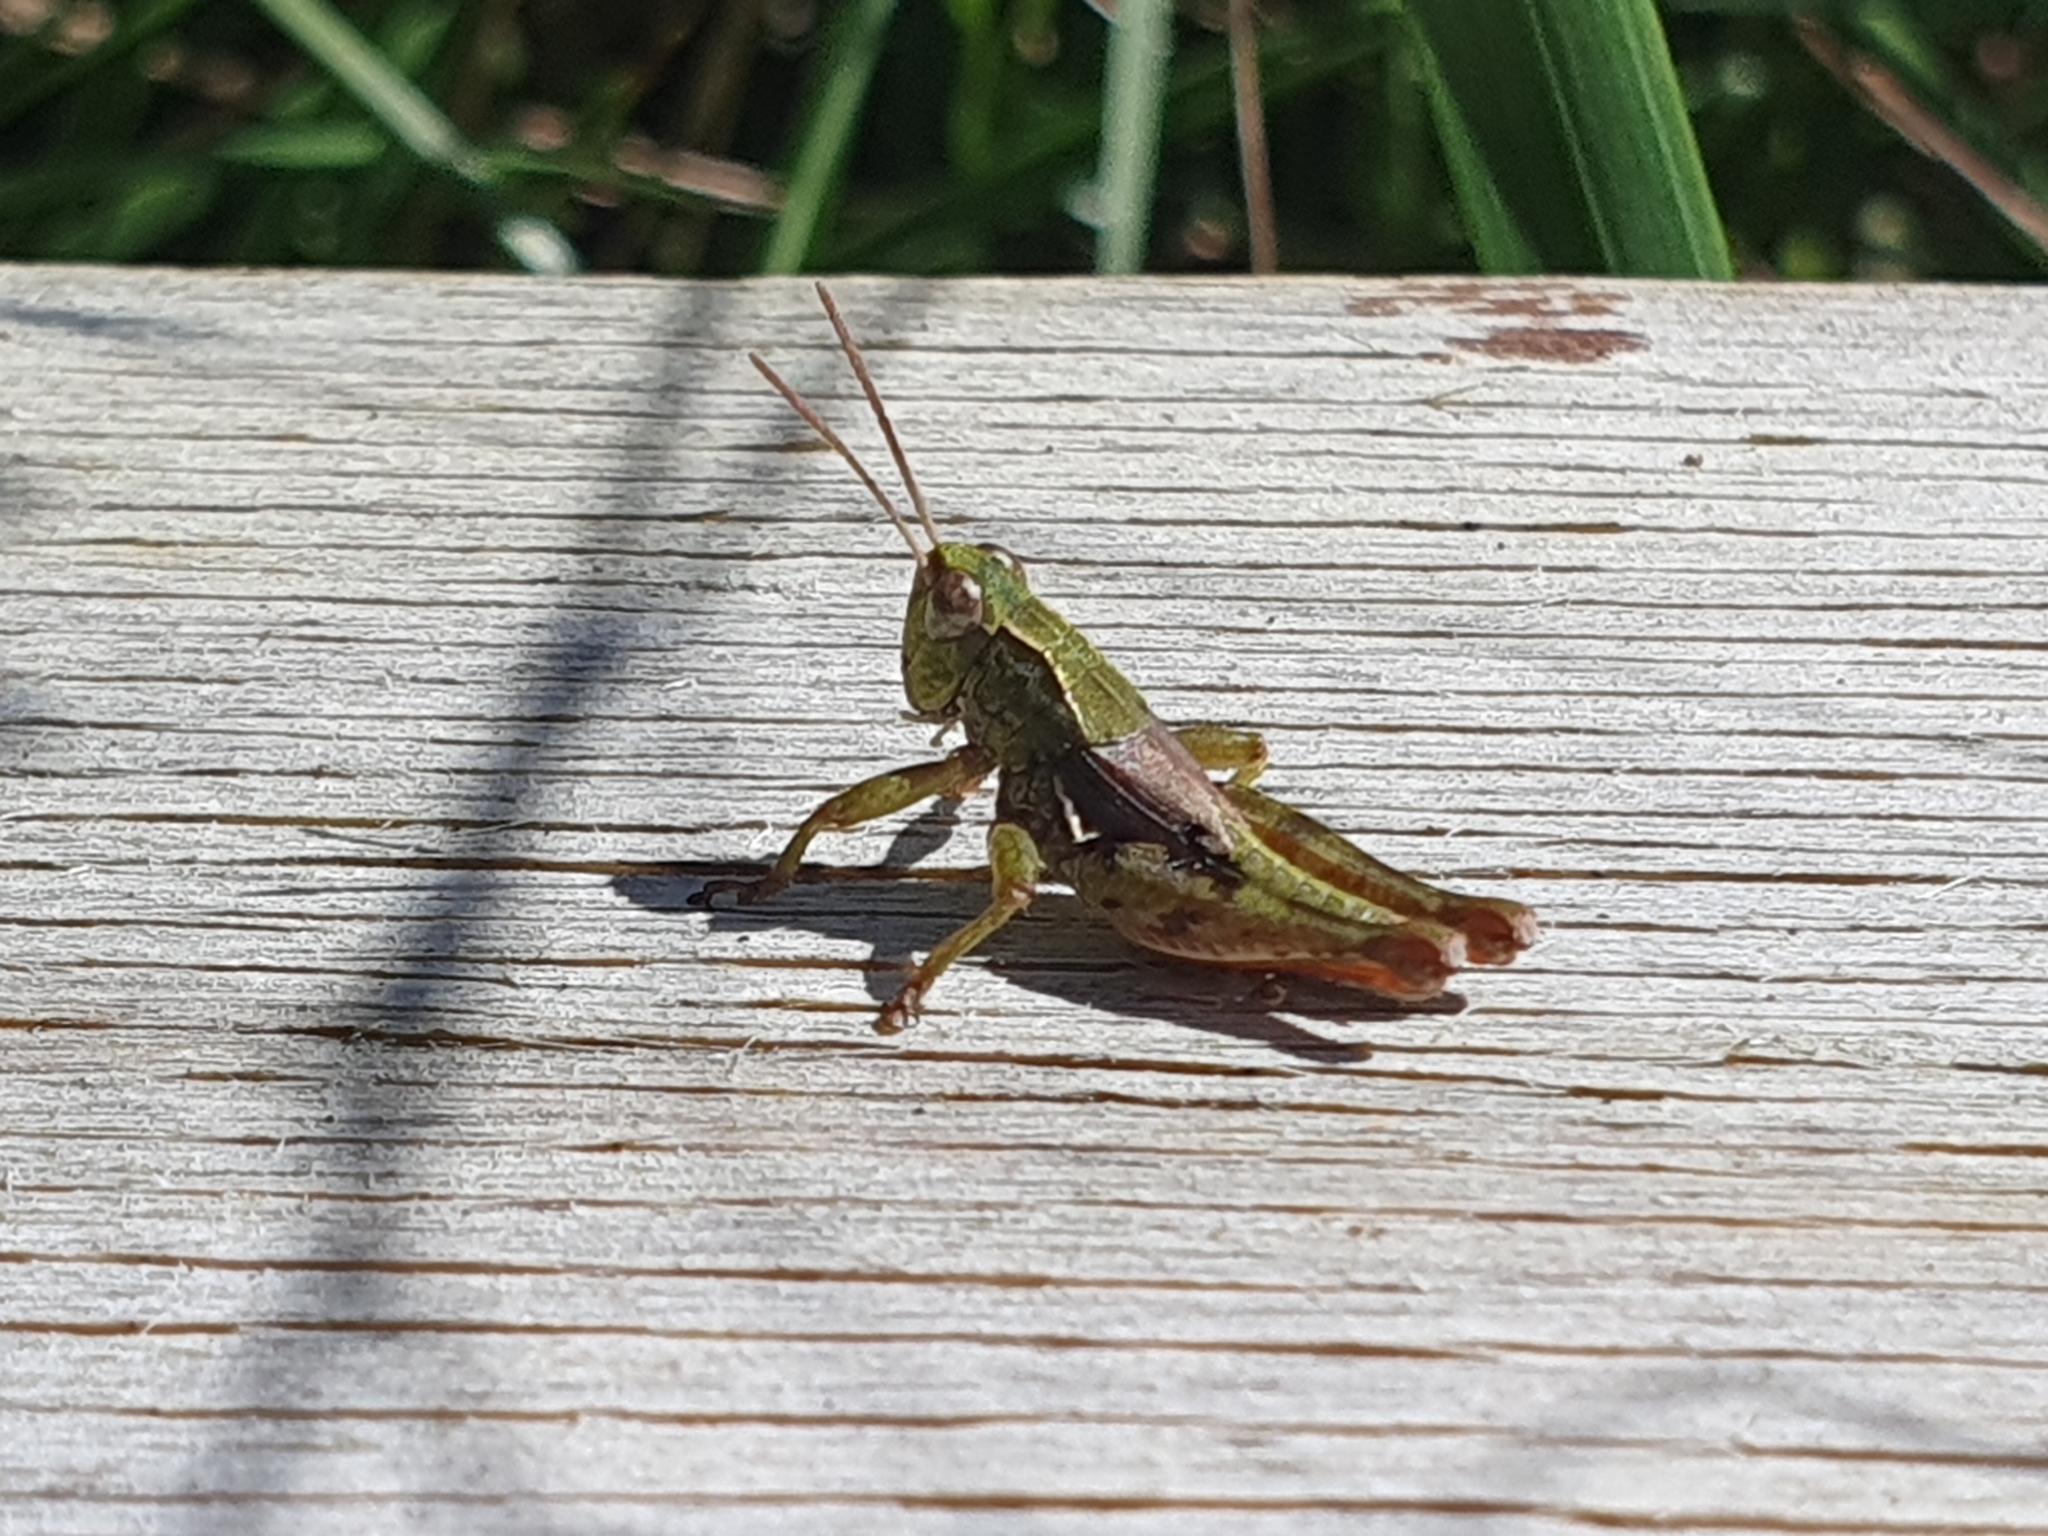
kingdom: Animalia
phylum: Arthropoda
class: Insecta
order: Orthoptera
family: Acrididae
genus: Phaulacridium
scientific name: Phaulacridium marginale
